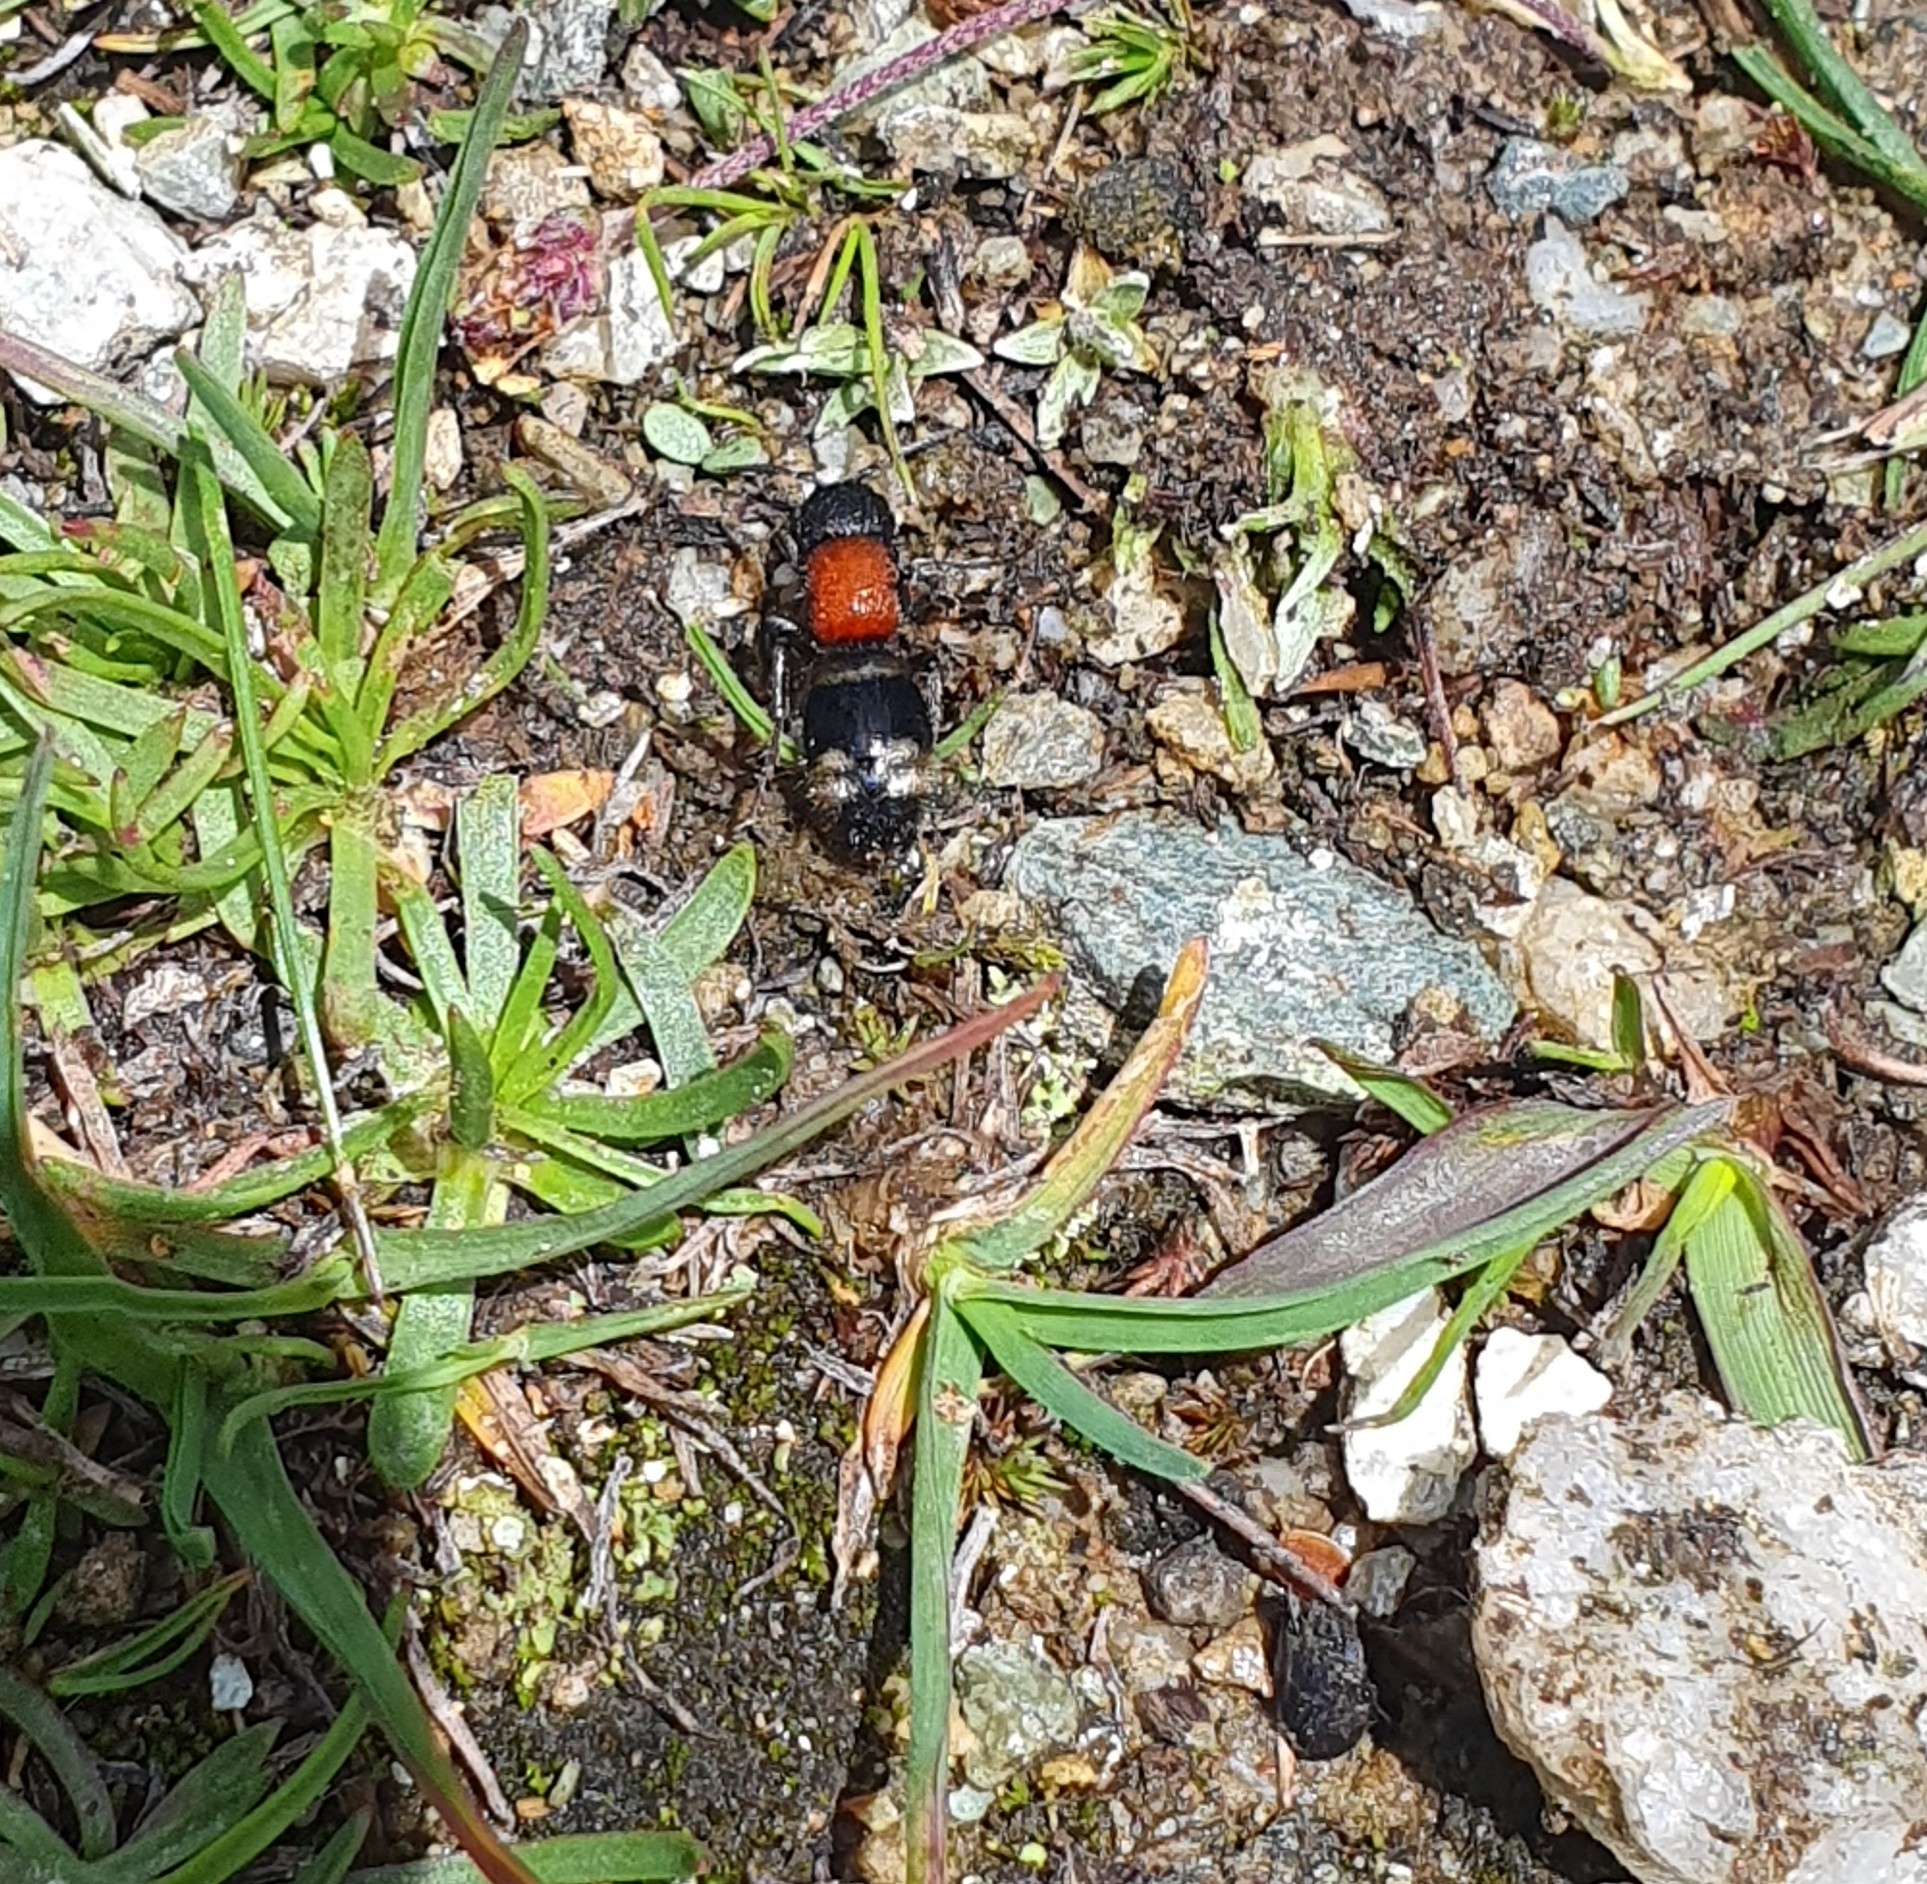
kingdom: Animalia
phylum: Arthropoda
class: Insecta
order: Hymenoptera
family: Mutillidae
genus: Mutilla
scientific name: Mutilla europaea
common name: Large velvet ant
